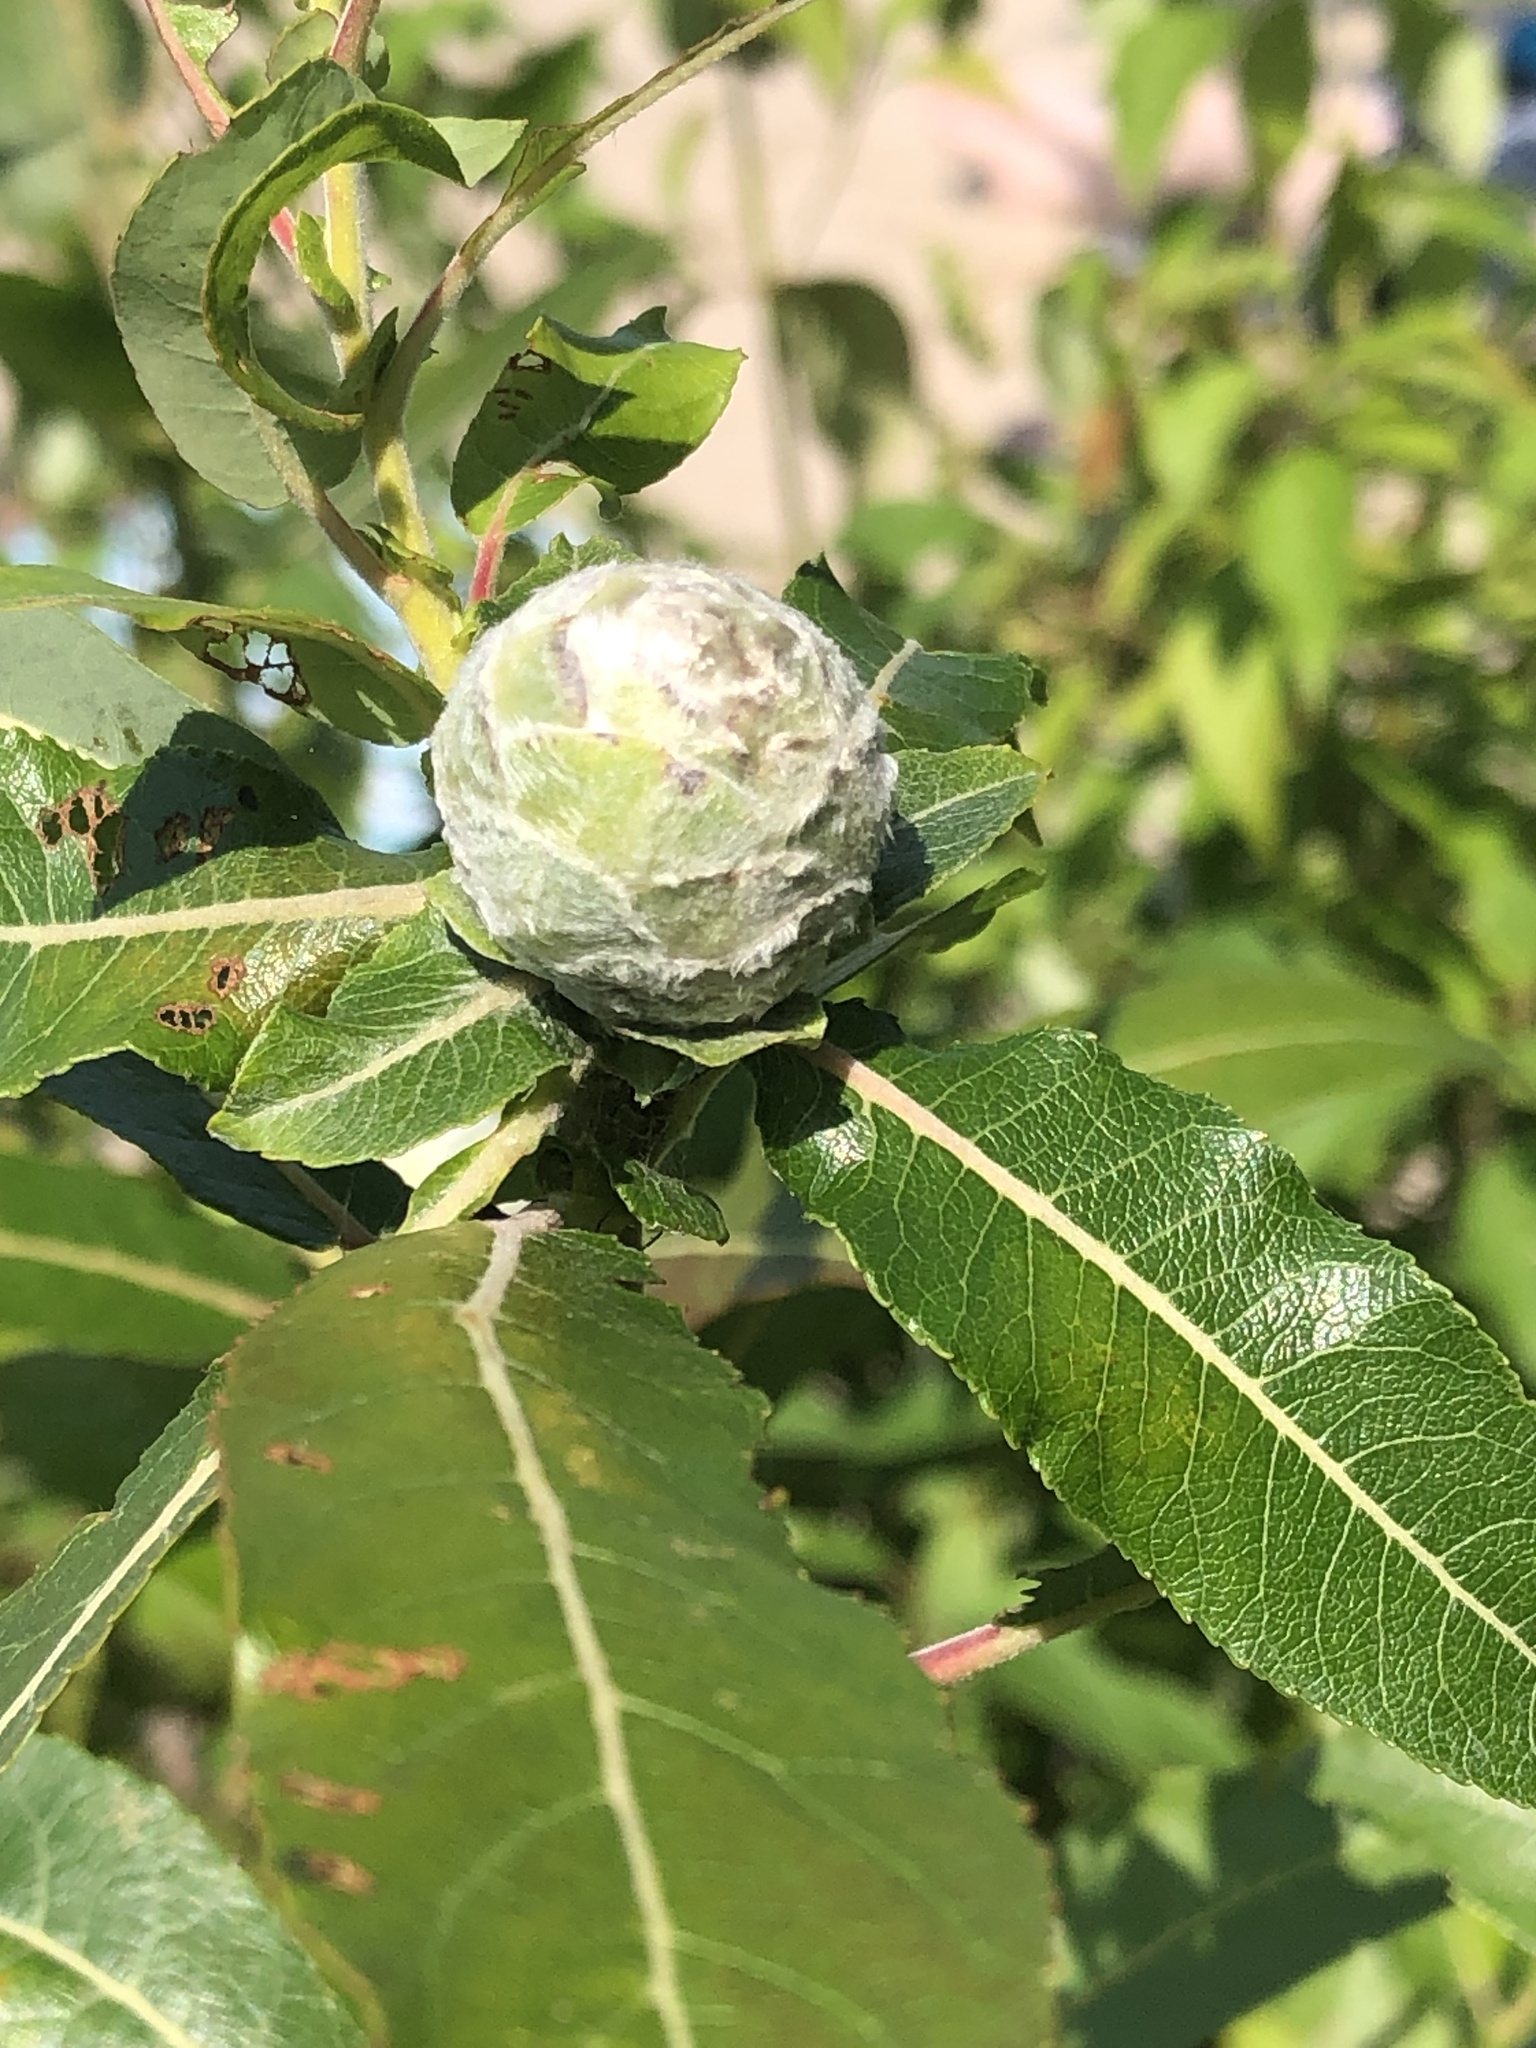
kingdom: Animalia
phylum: Arthropoda
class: Insecta
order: Diptera
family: Cecidomyiidae
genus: Rabdophaga
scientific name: Rabdophaga strobiloides
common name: Willow pinecone gall midge
